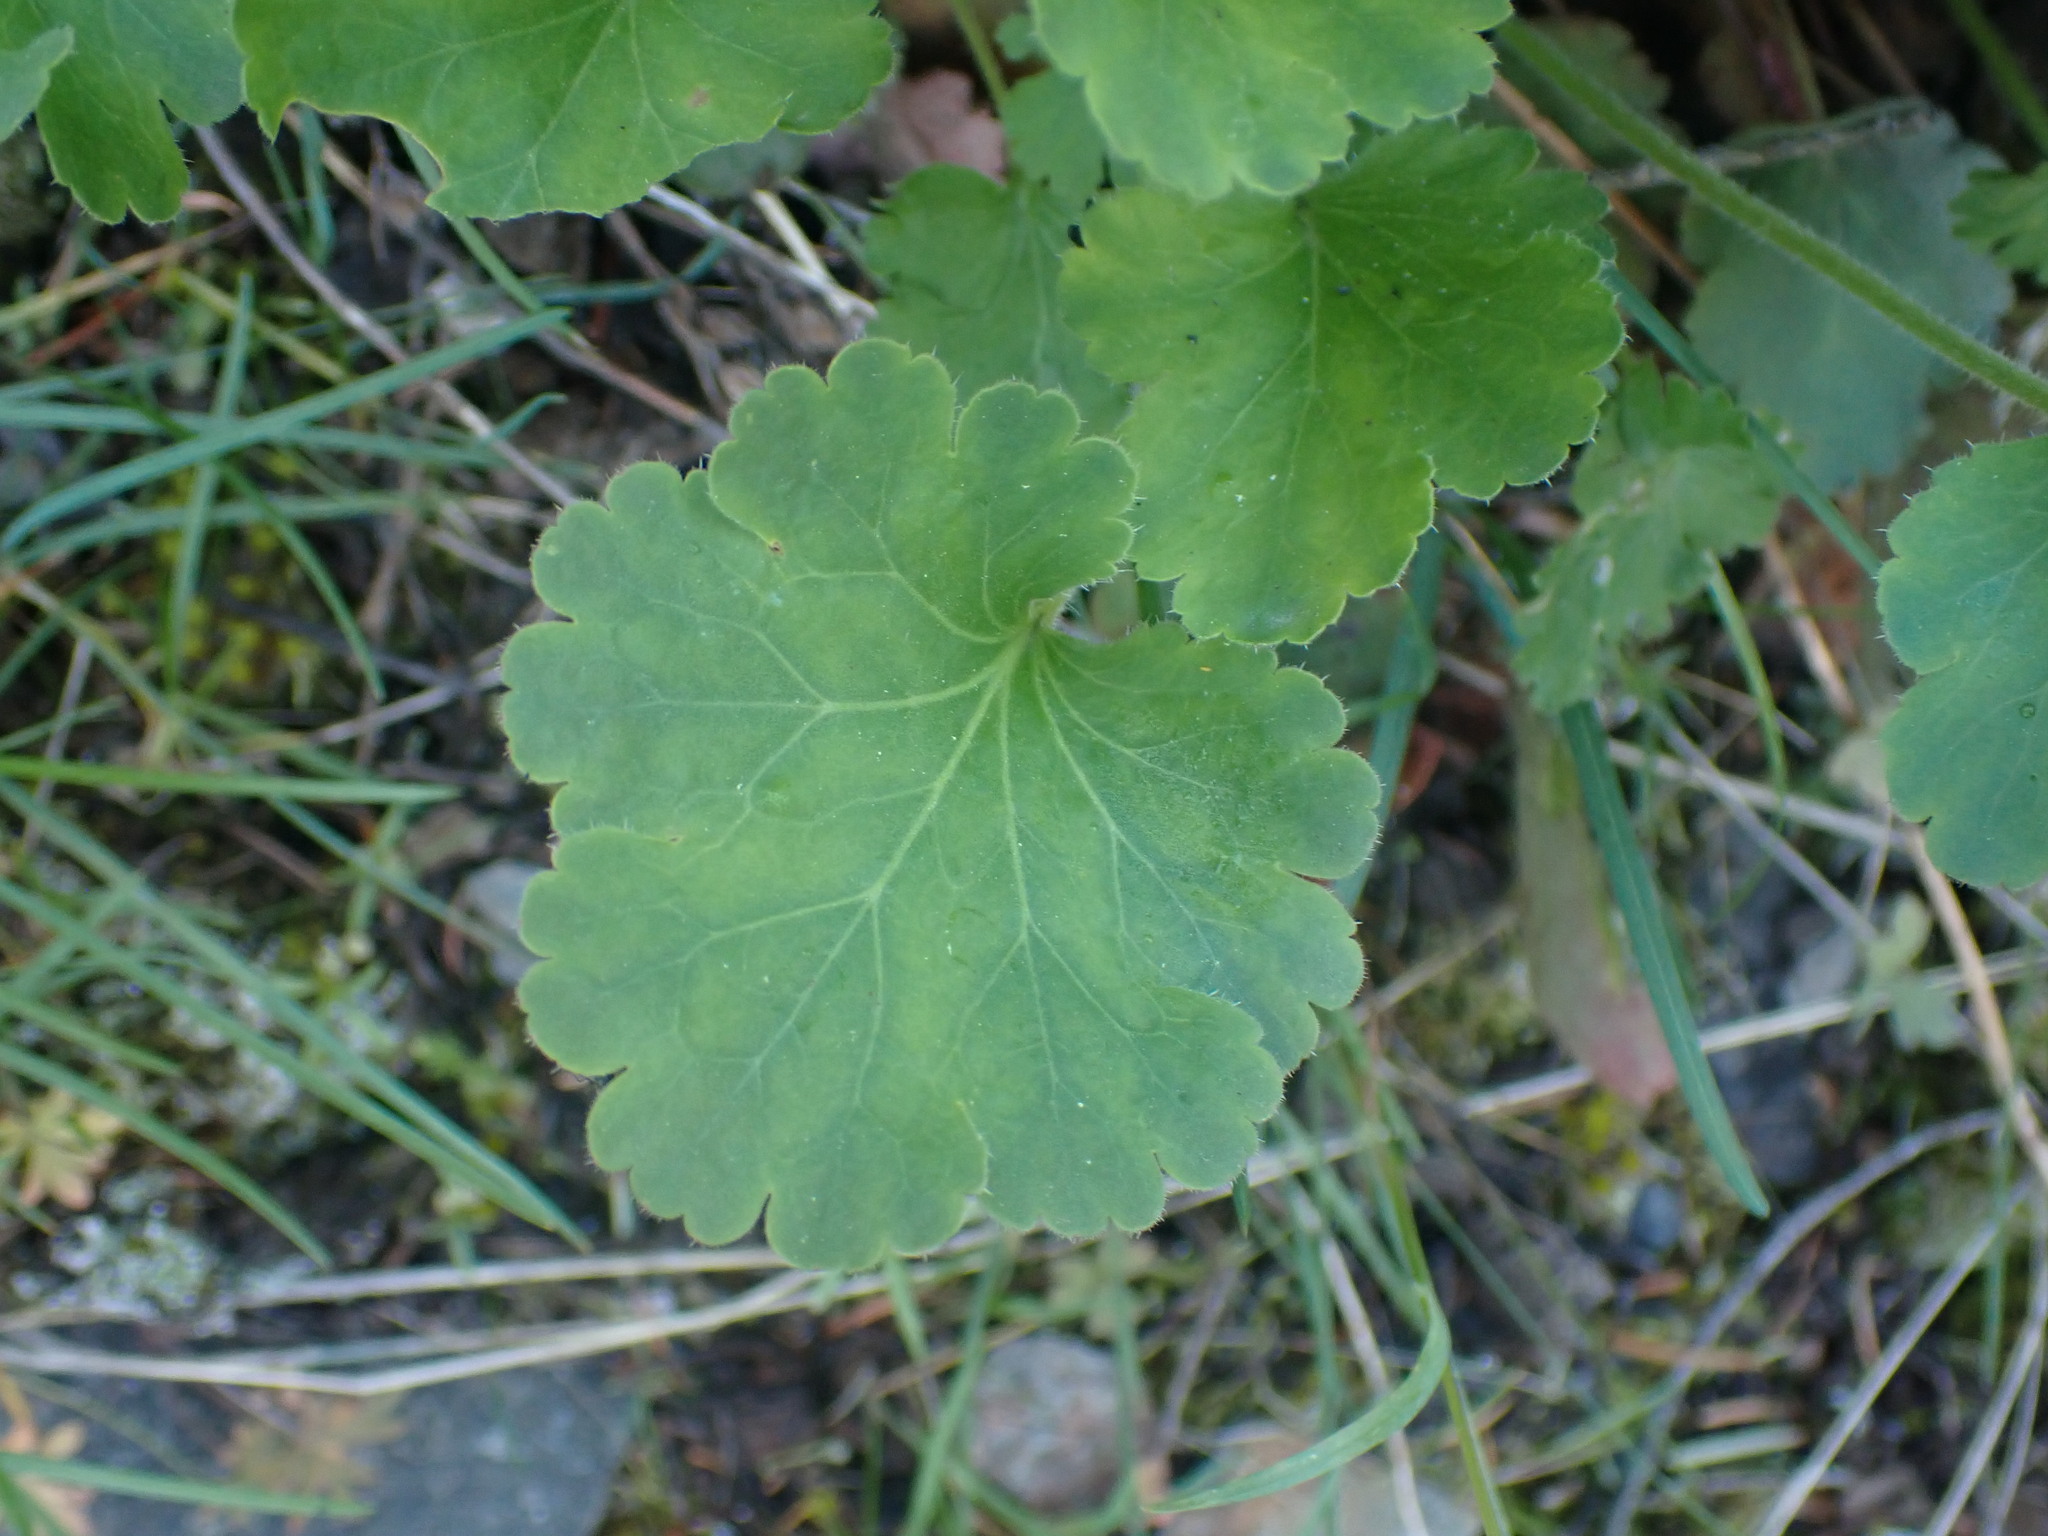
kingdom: Plantae
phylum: Tracheophyta
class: Magnoliopsida
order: Saxifragales
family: Saxifragaceae
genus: Heuchera
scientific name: Heuchera cylindrica
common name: Mat alumroot
